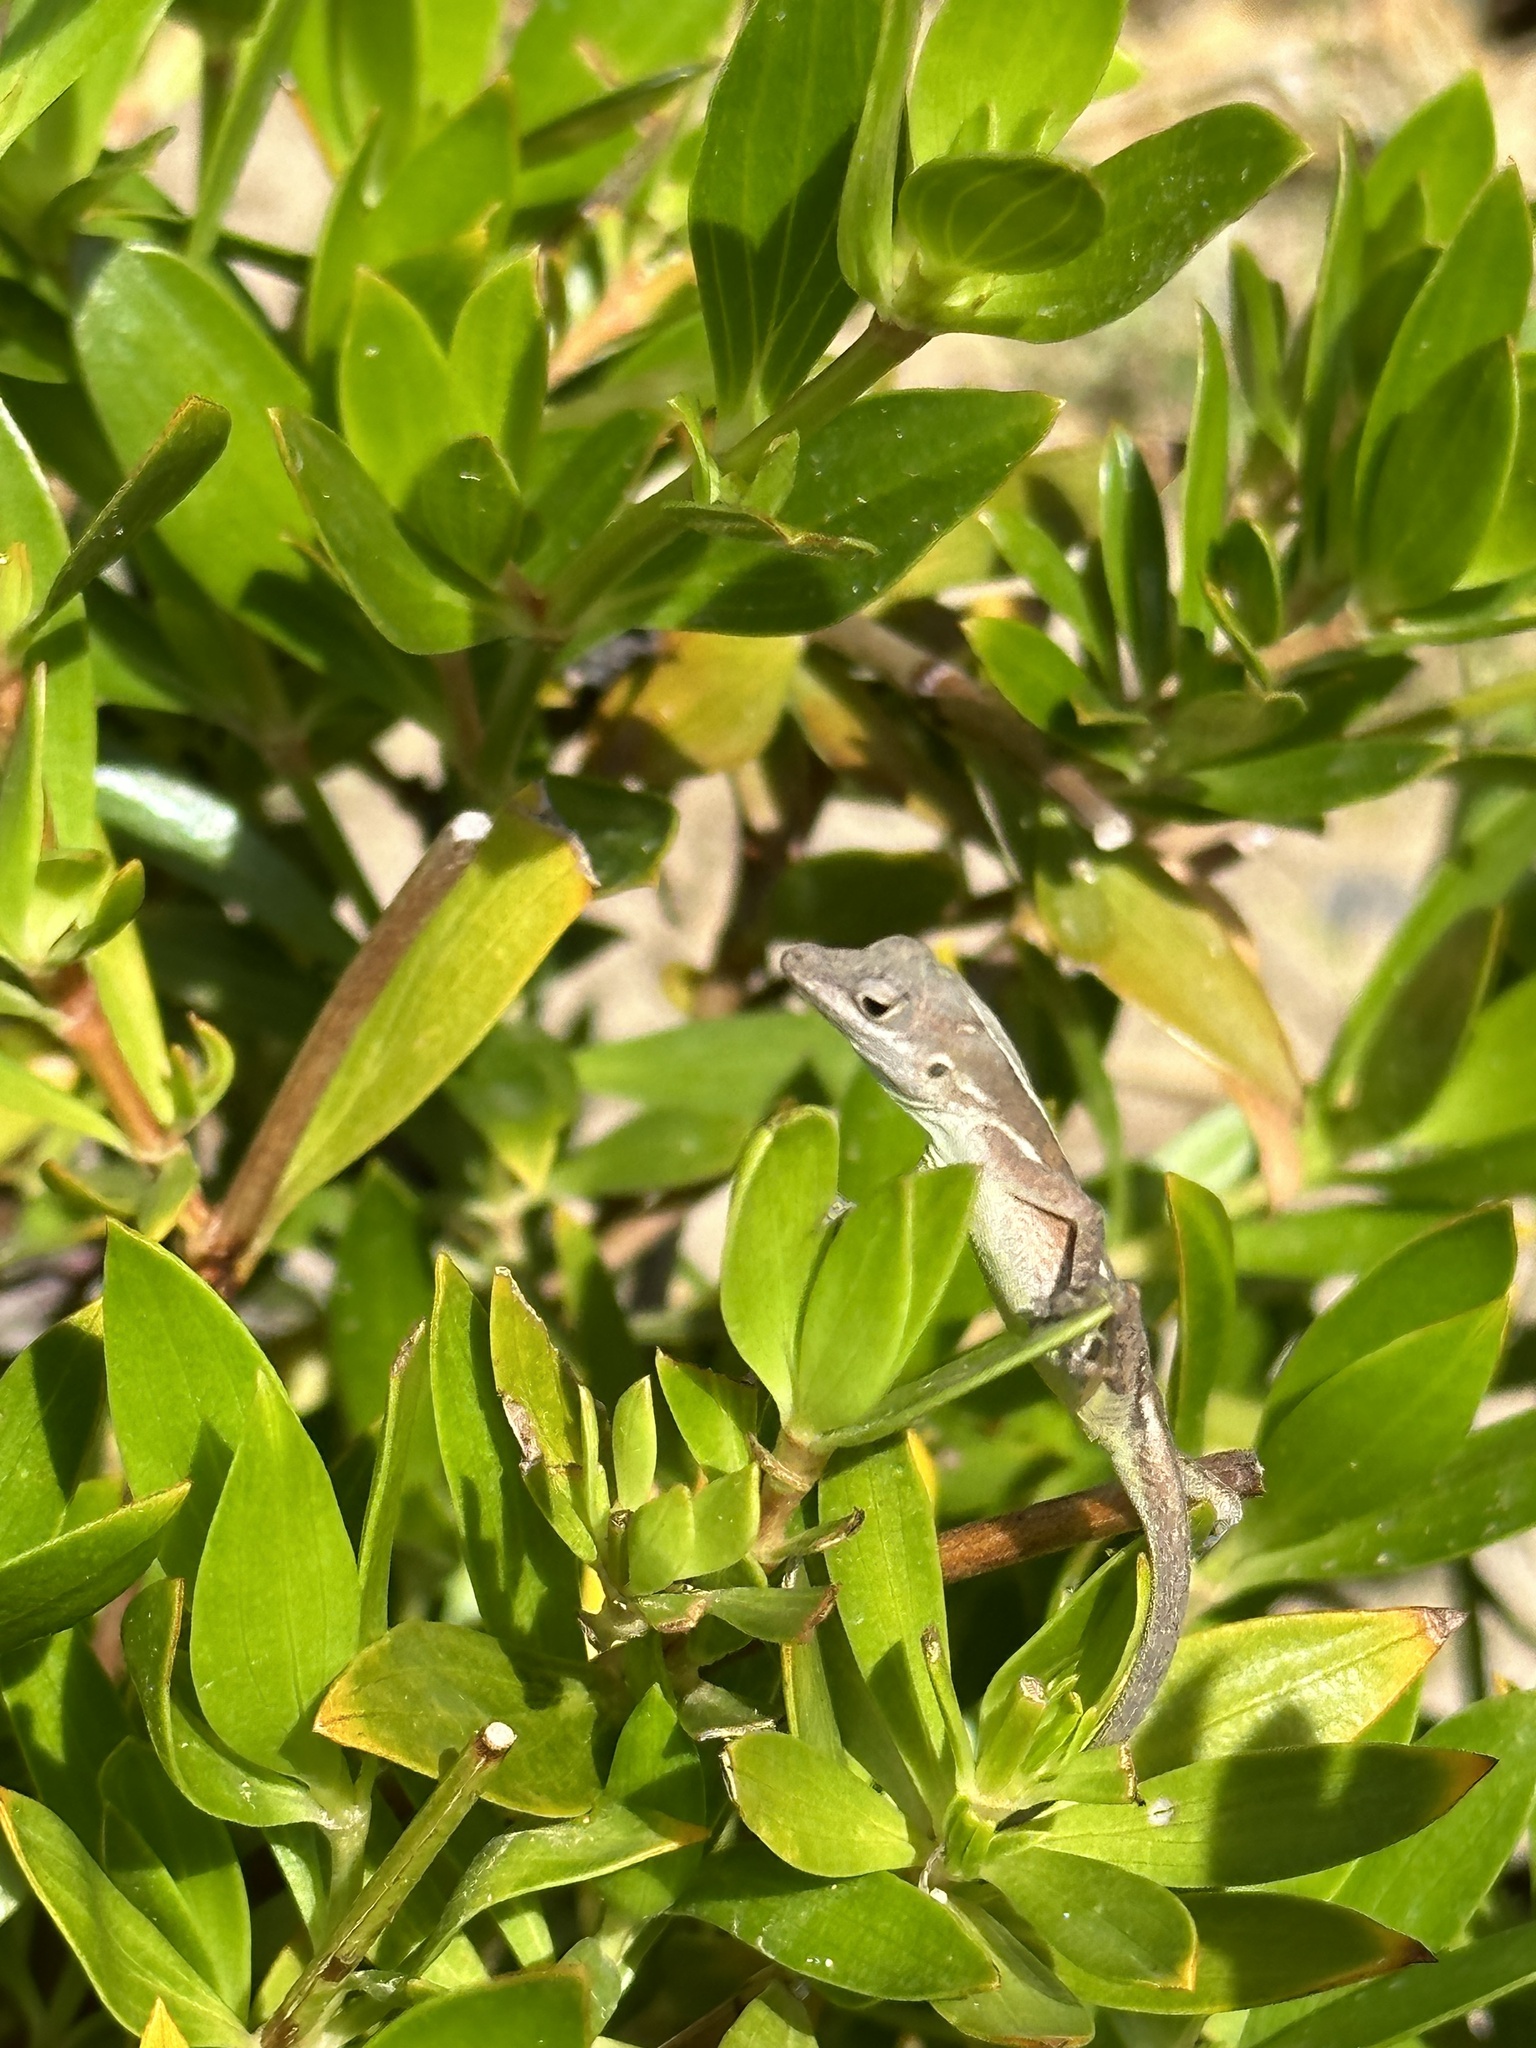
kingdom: Animalia
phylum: Chordata
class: Squamata
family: Dactyloidae
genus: Anolis
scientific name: Anolis gingivinus
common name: Anguilla anole
